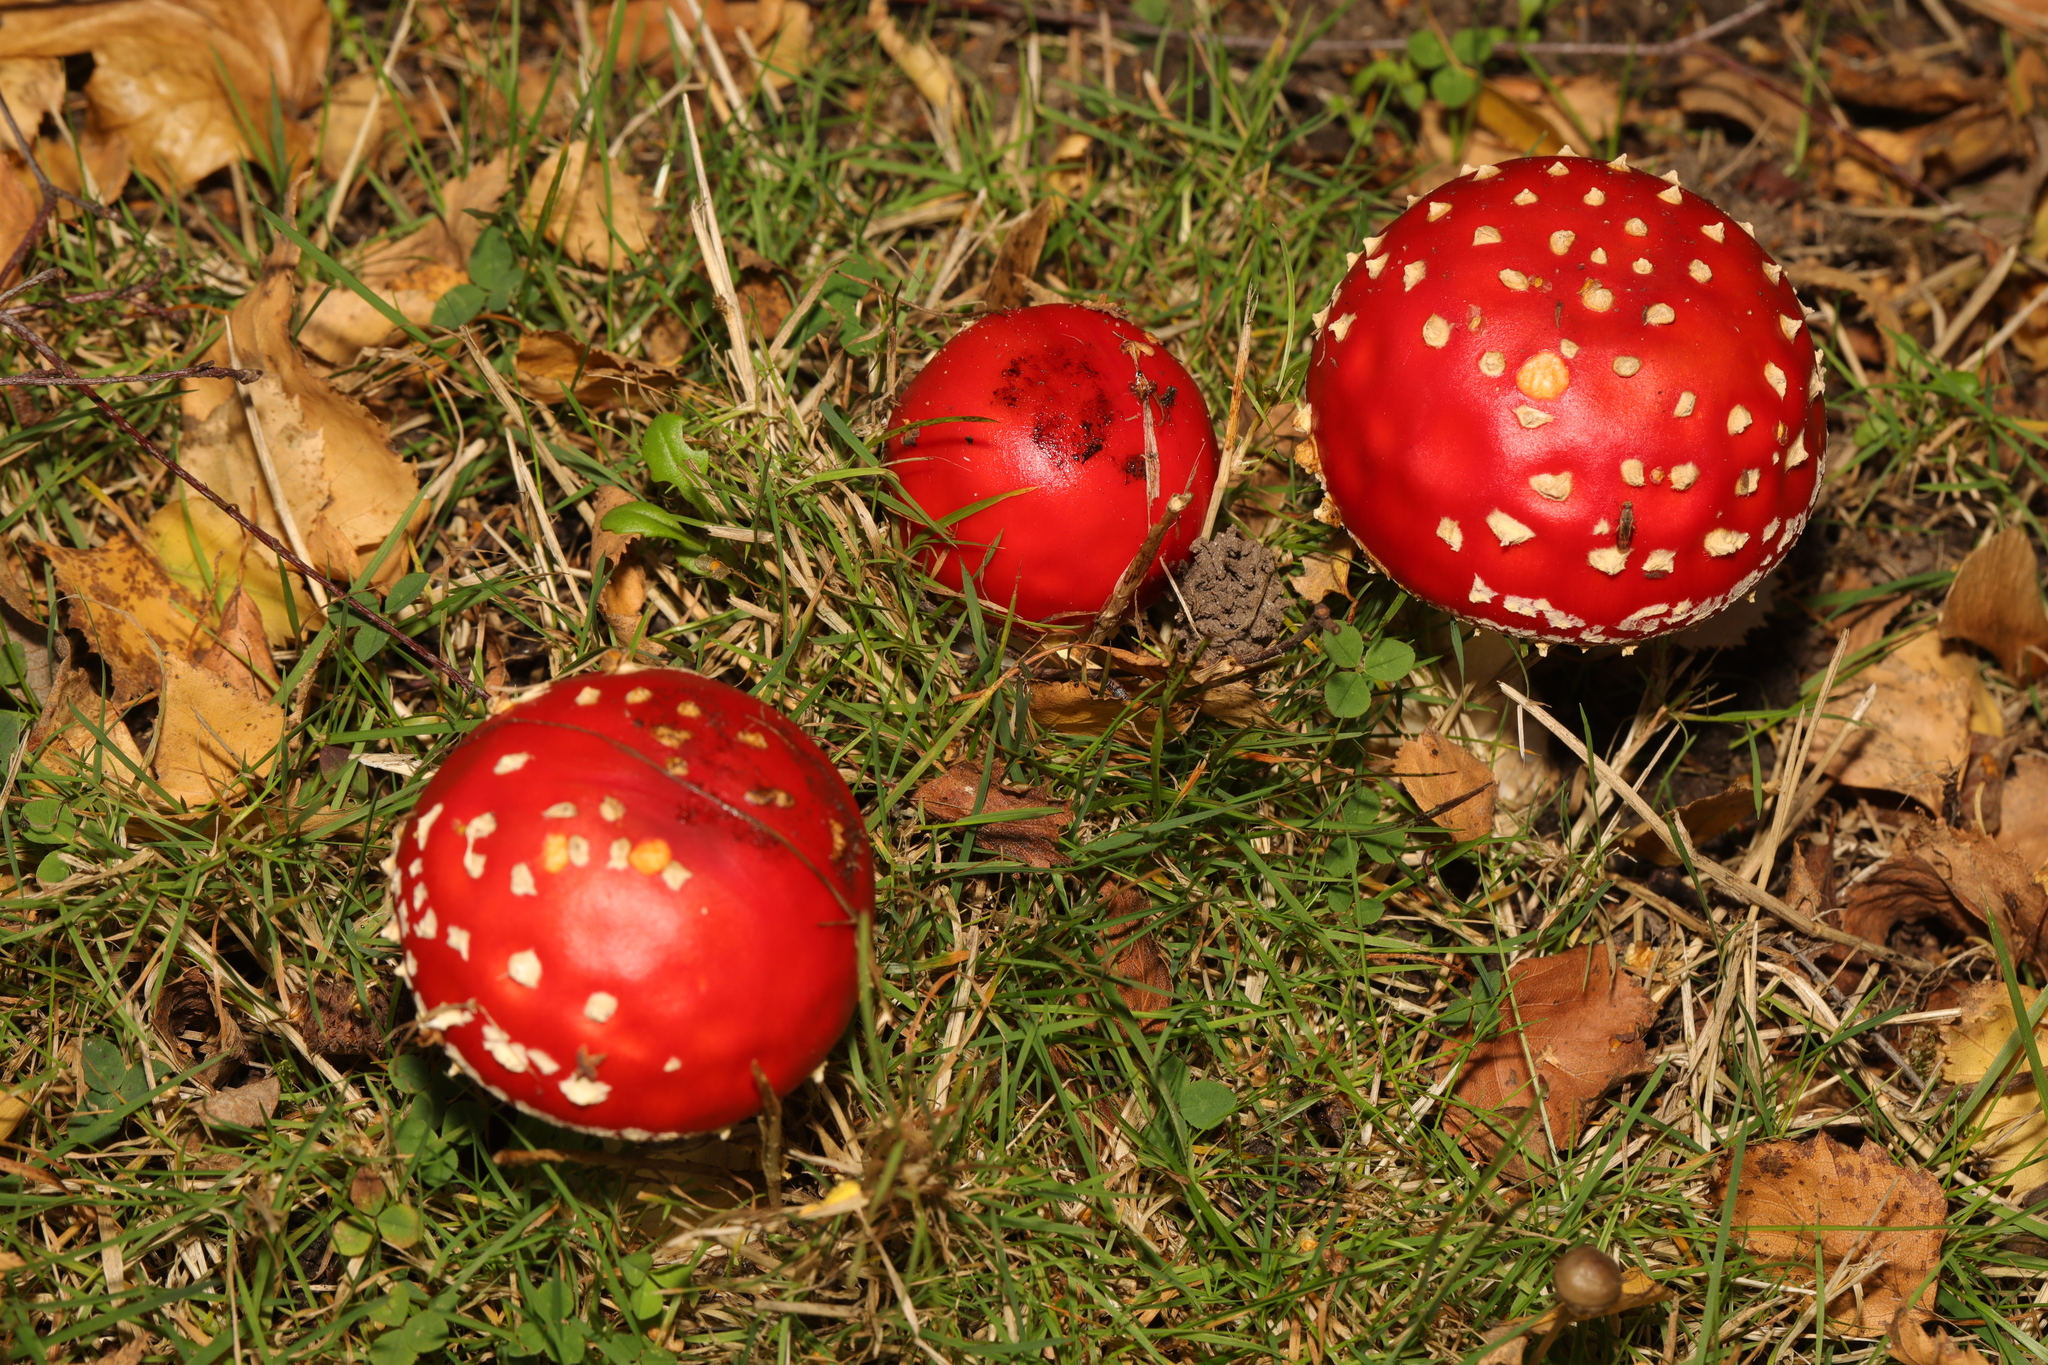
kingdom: Fungi
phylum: Basidiomycota
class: Agaricomycetes
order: Agaricales
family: Amanitaceae
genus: Amanita
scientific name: Amanita muscaria
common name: Fly agaric
